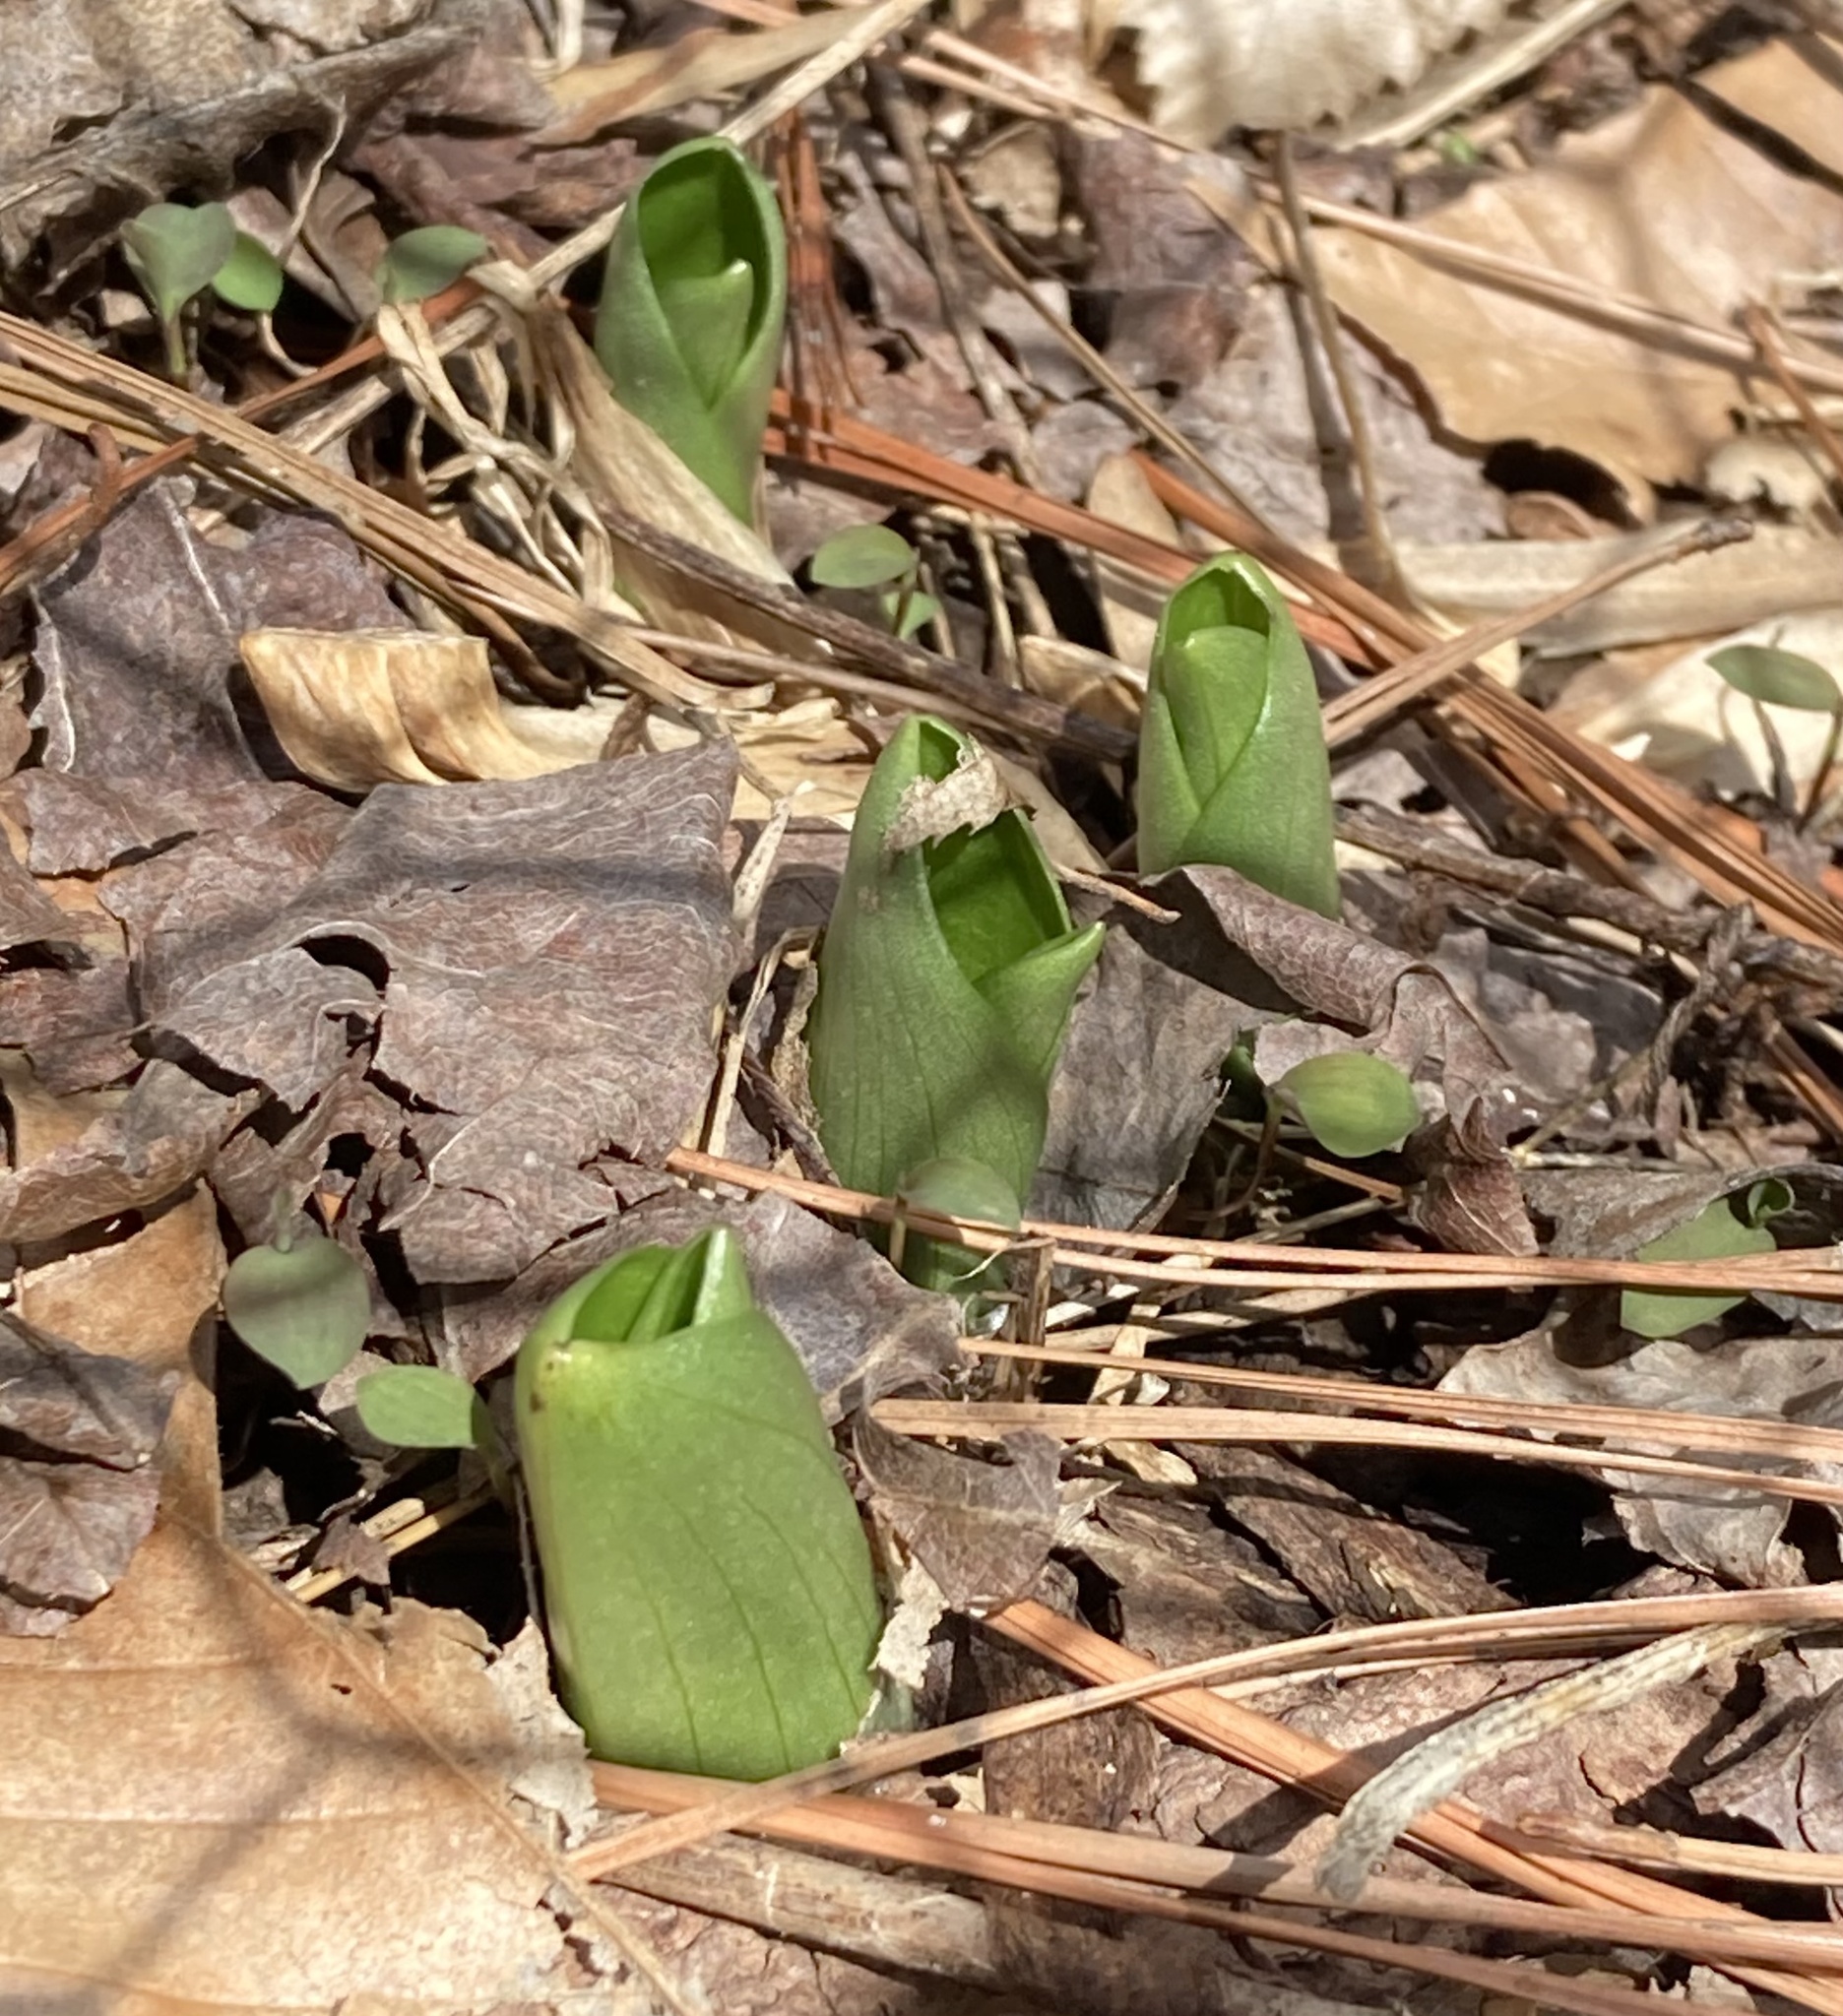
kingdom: Plantae
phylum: Tracheophyta
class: Liliopsida
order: Asparagales
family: Orchidaceae
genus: Galearis
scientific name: Galearis spectabilis
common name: Purple-hooded orchis
